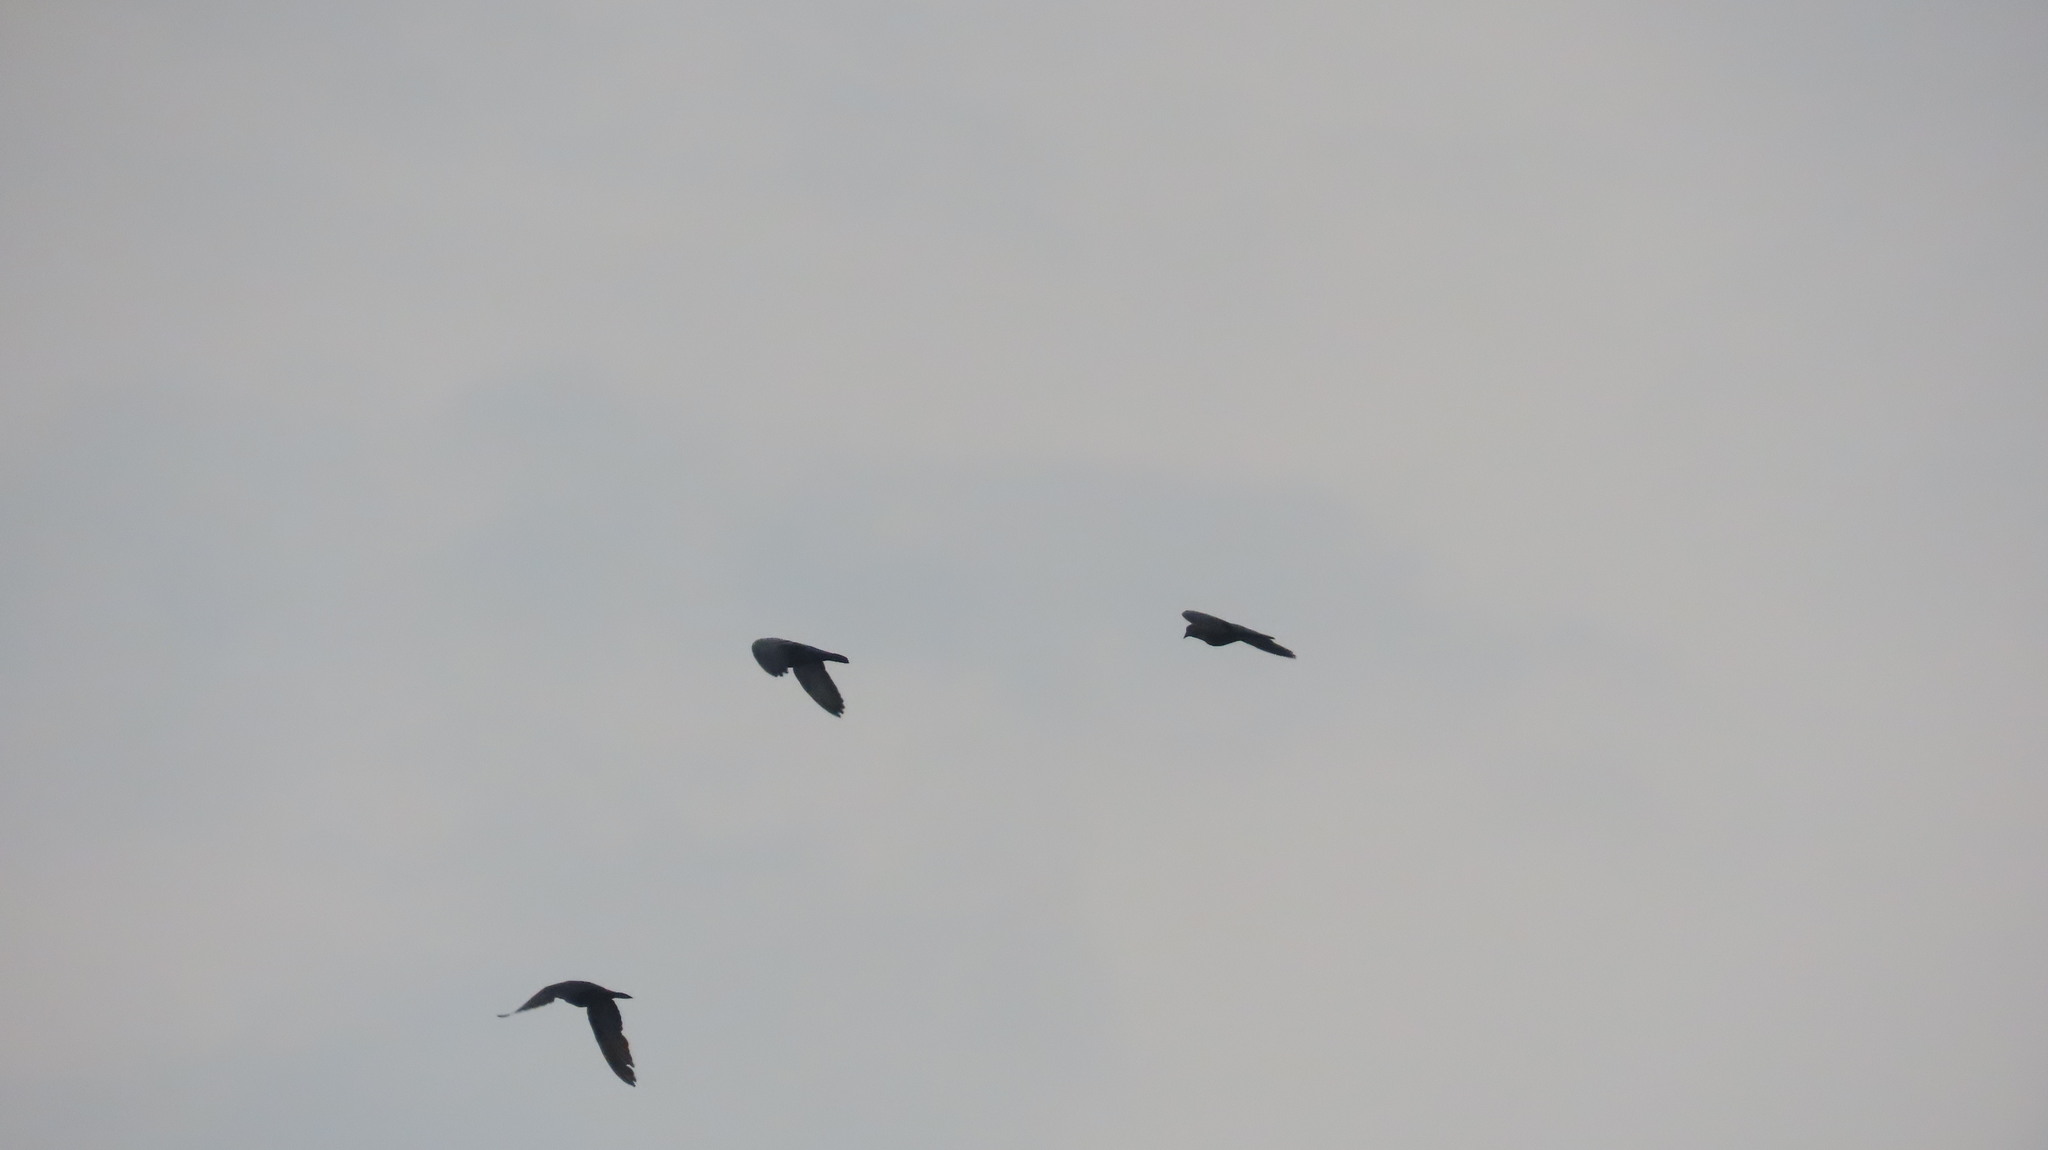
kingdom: Animalia
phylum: Chordata
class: Aves
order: Columbiformes
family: Columbidae
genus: Columba
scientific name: Columba livia
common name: Rock pigeon
